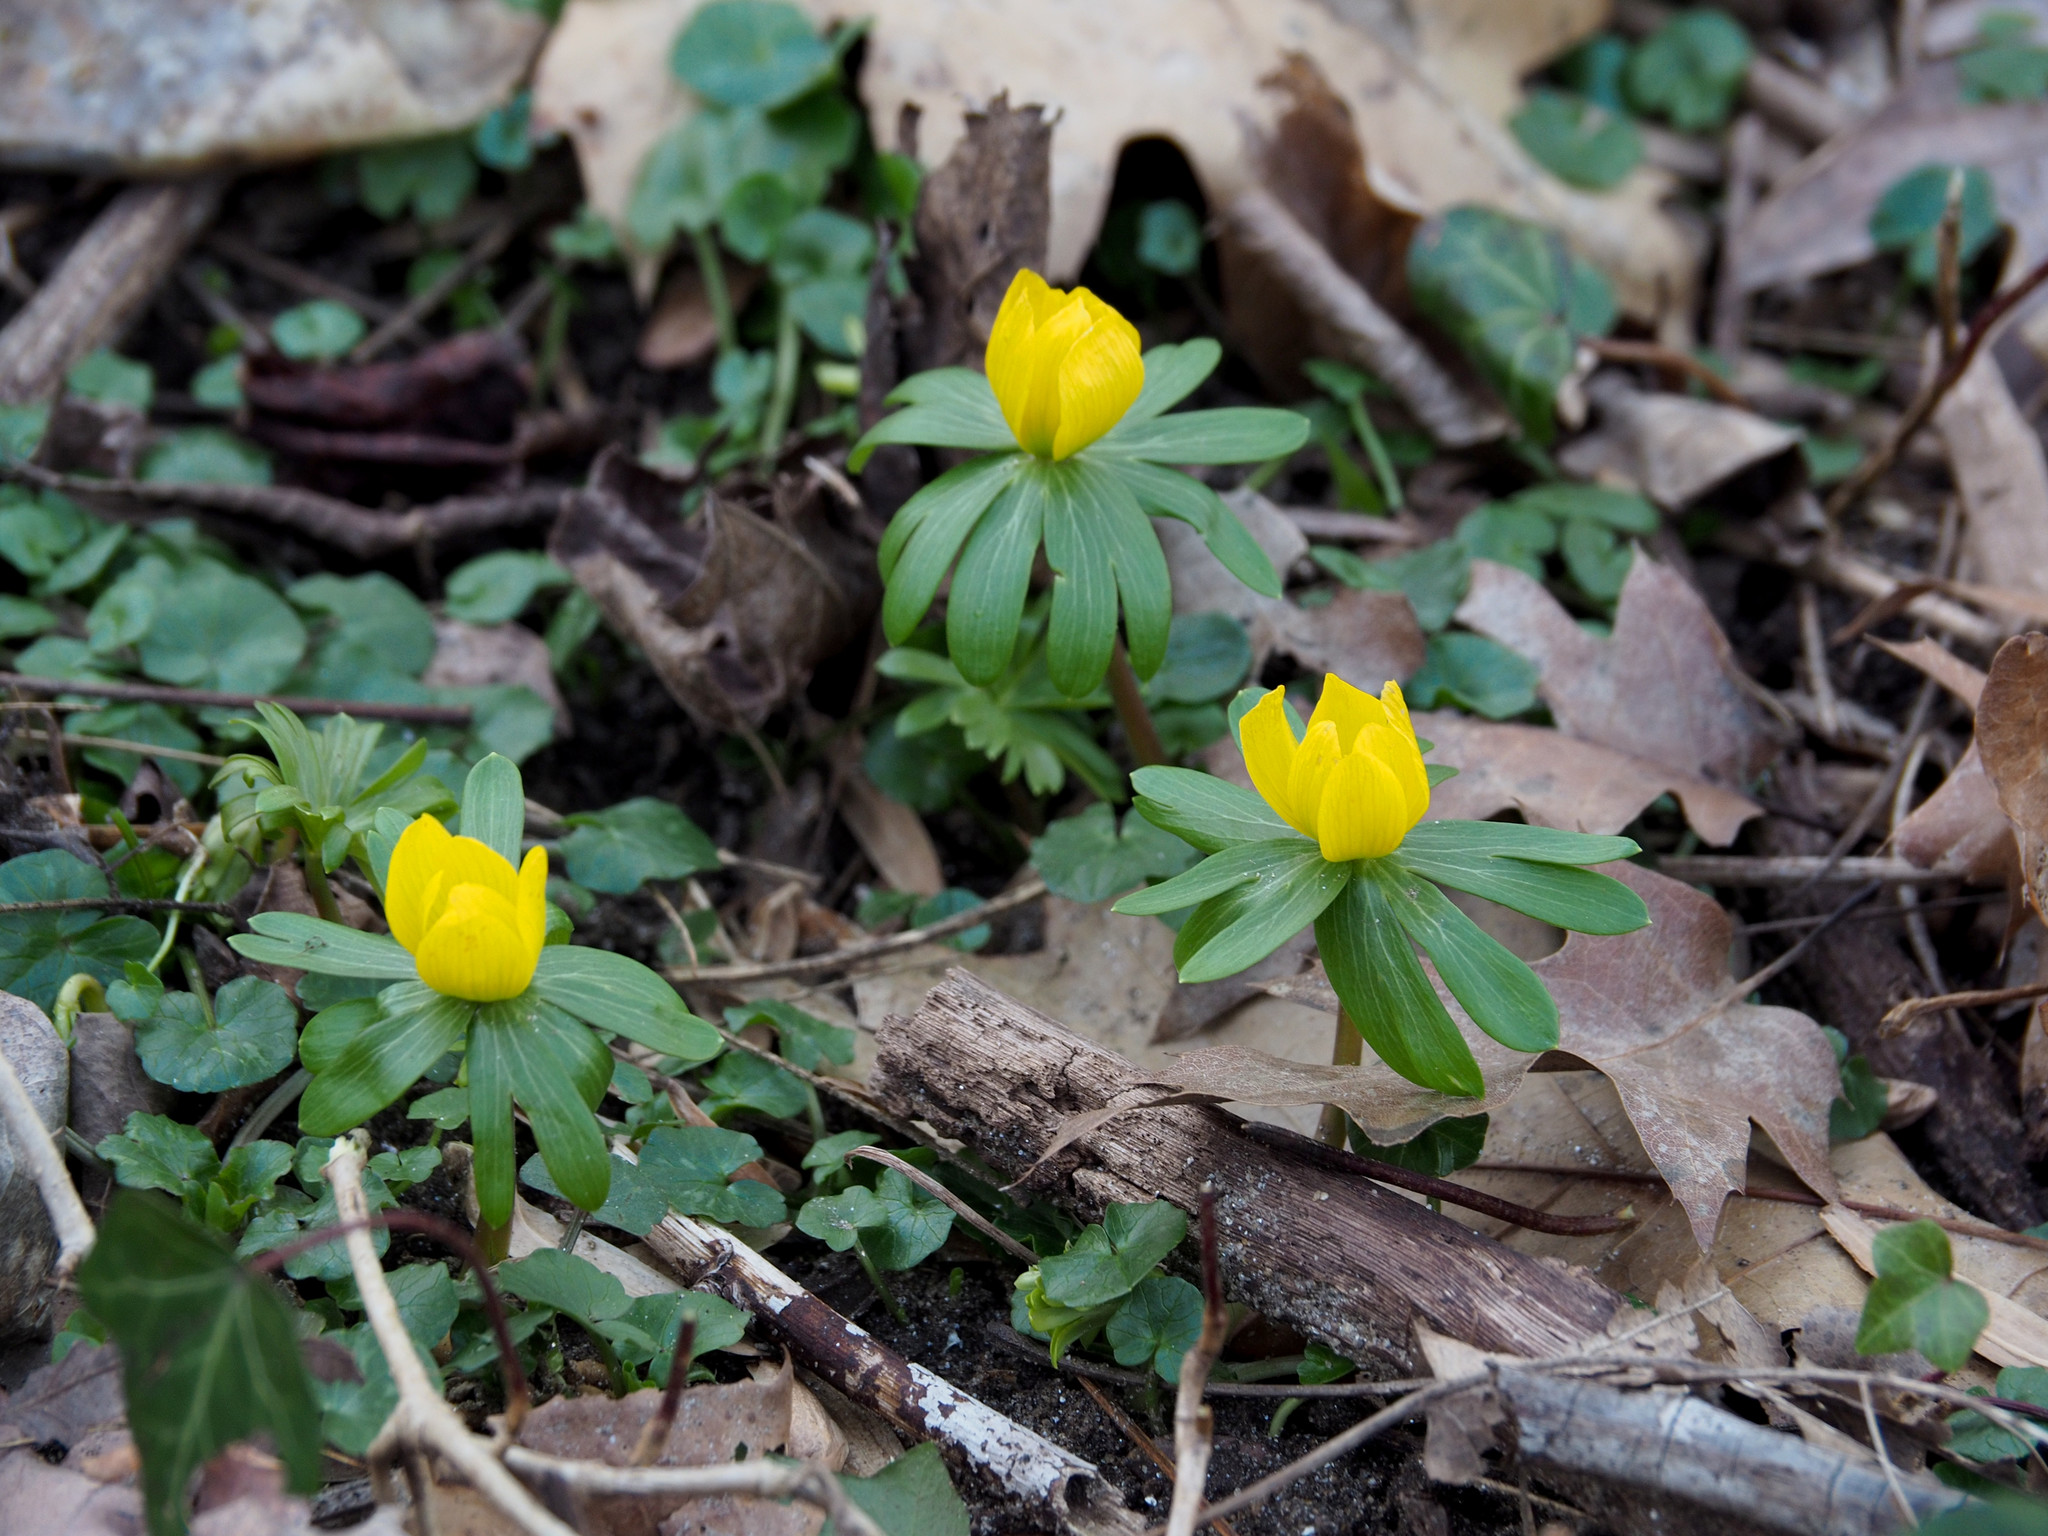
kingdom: Plantae
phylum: Tracheophyta
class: Magnoliopsida
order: Ranunculales
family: Ranunculaceae
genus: Eranthis
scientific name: Eranthis hyemalis
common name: Winter aconite
